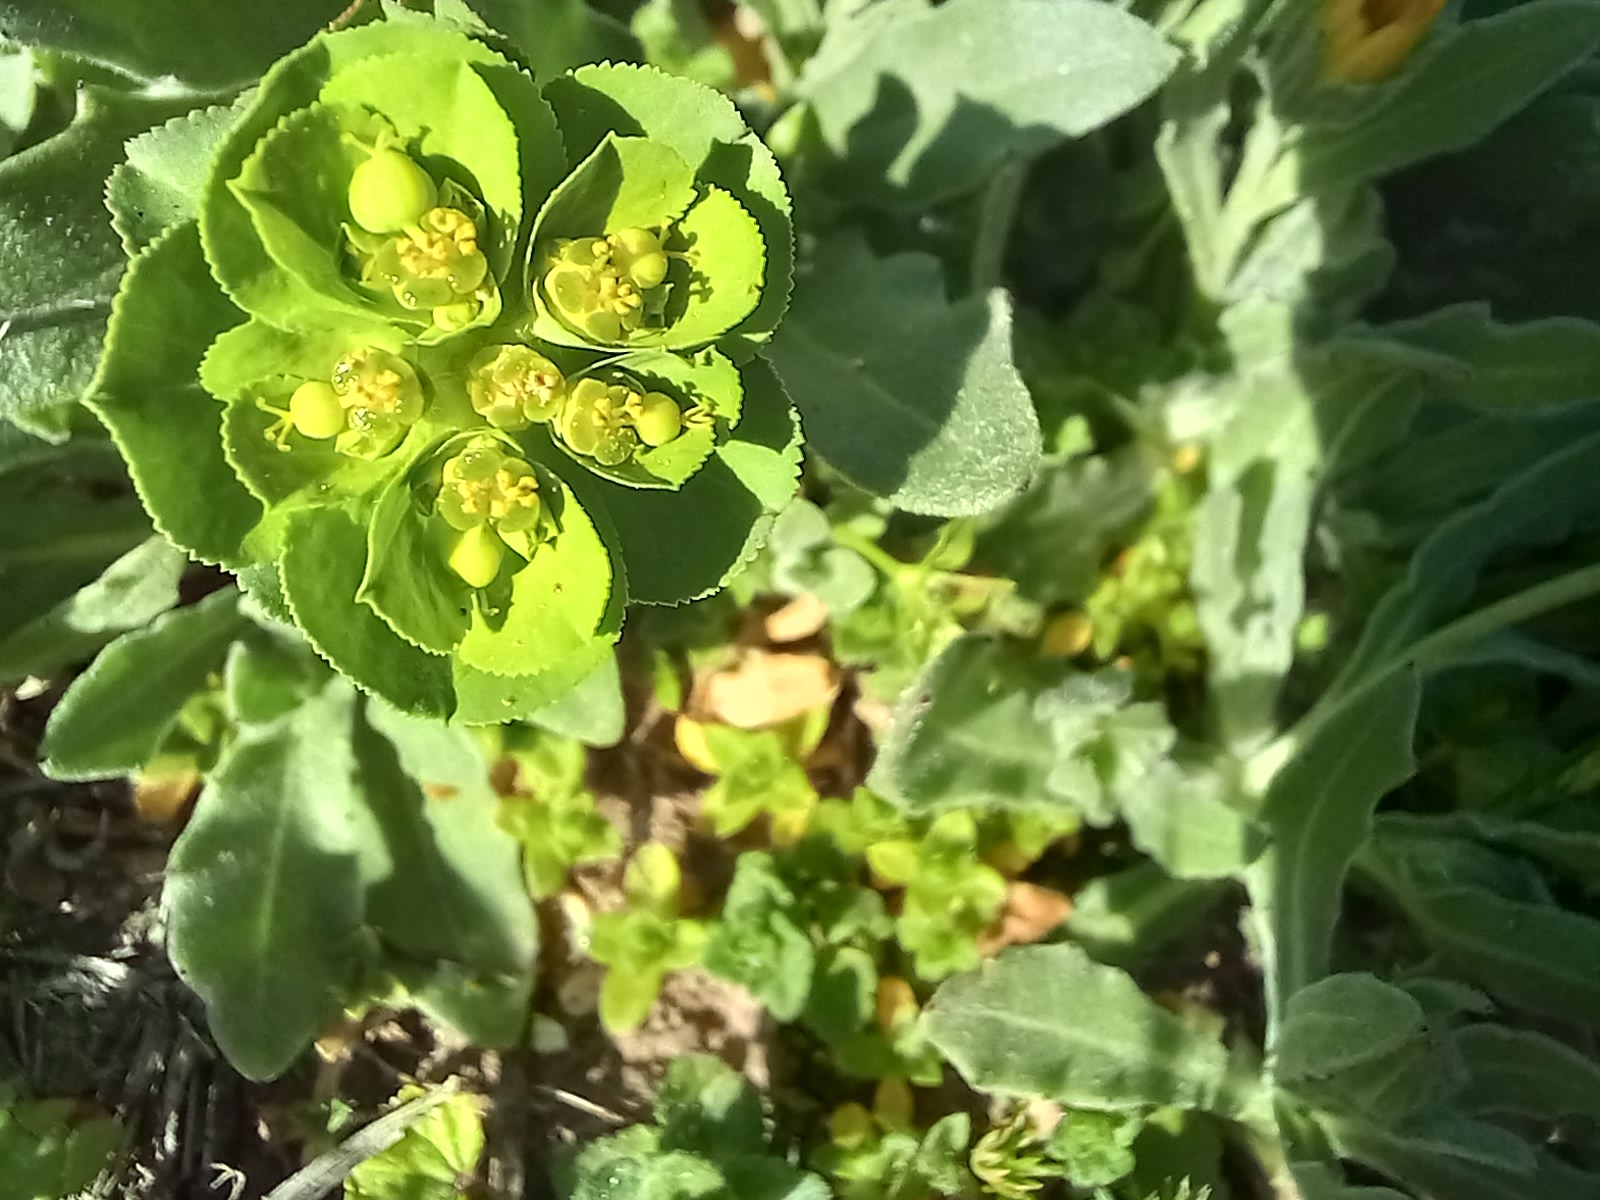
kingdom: Plantae
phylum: Tracheophyta
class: Magnoliopsida
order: Malpighiales
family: Euphorbiaceae
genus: Euphorbia
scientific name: Euphorbia helioscopia
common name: Sun spurge
